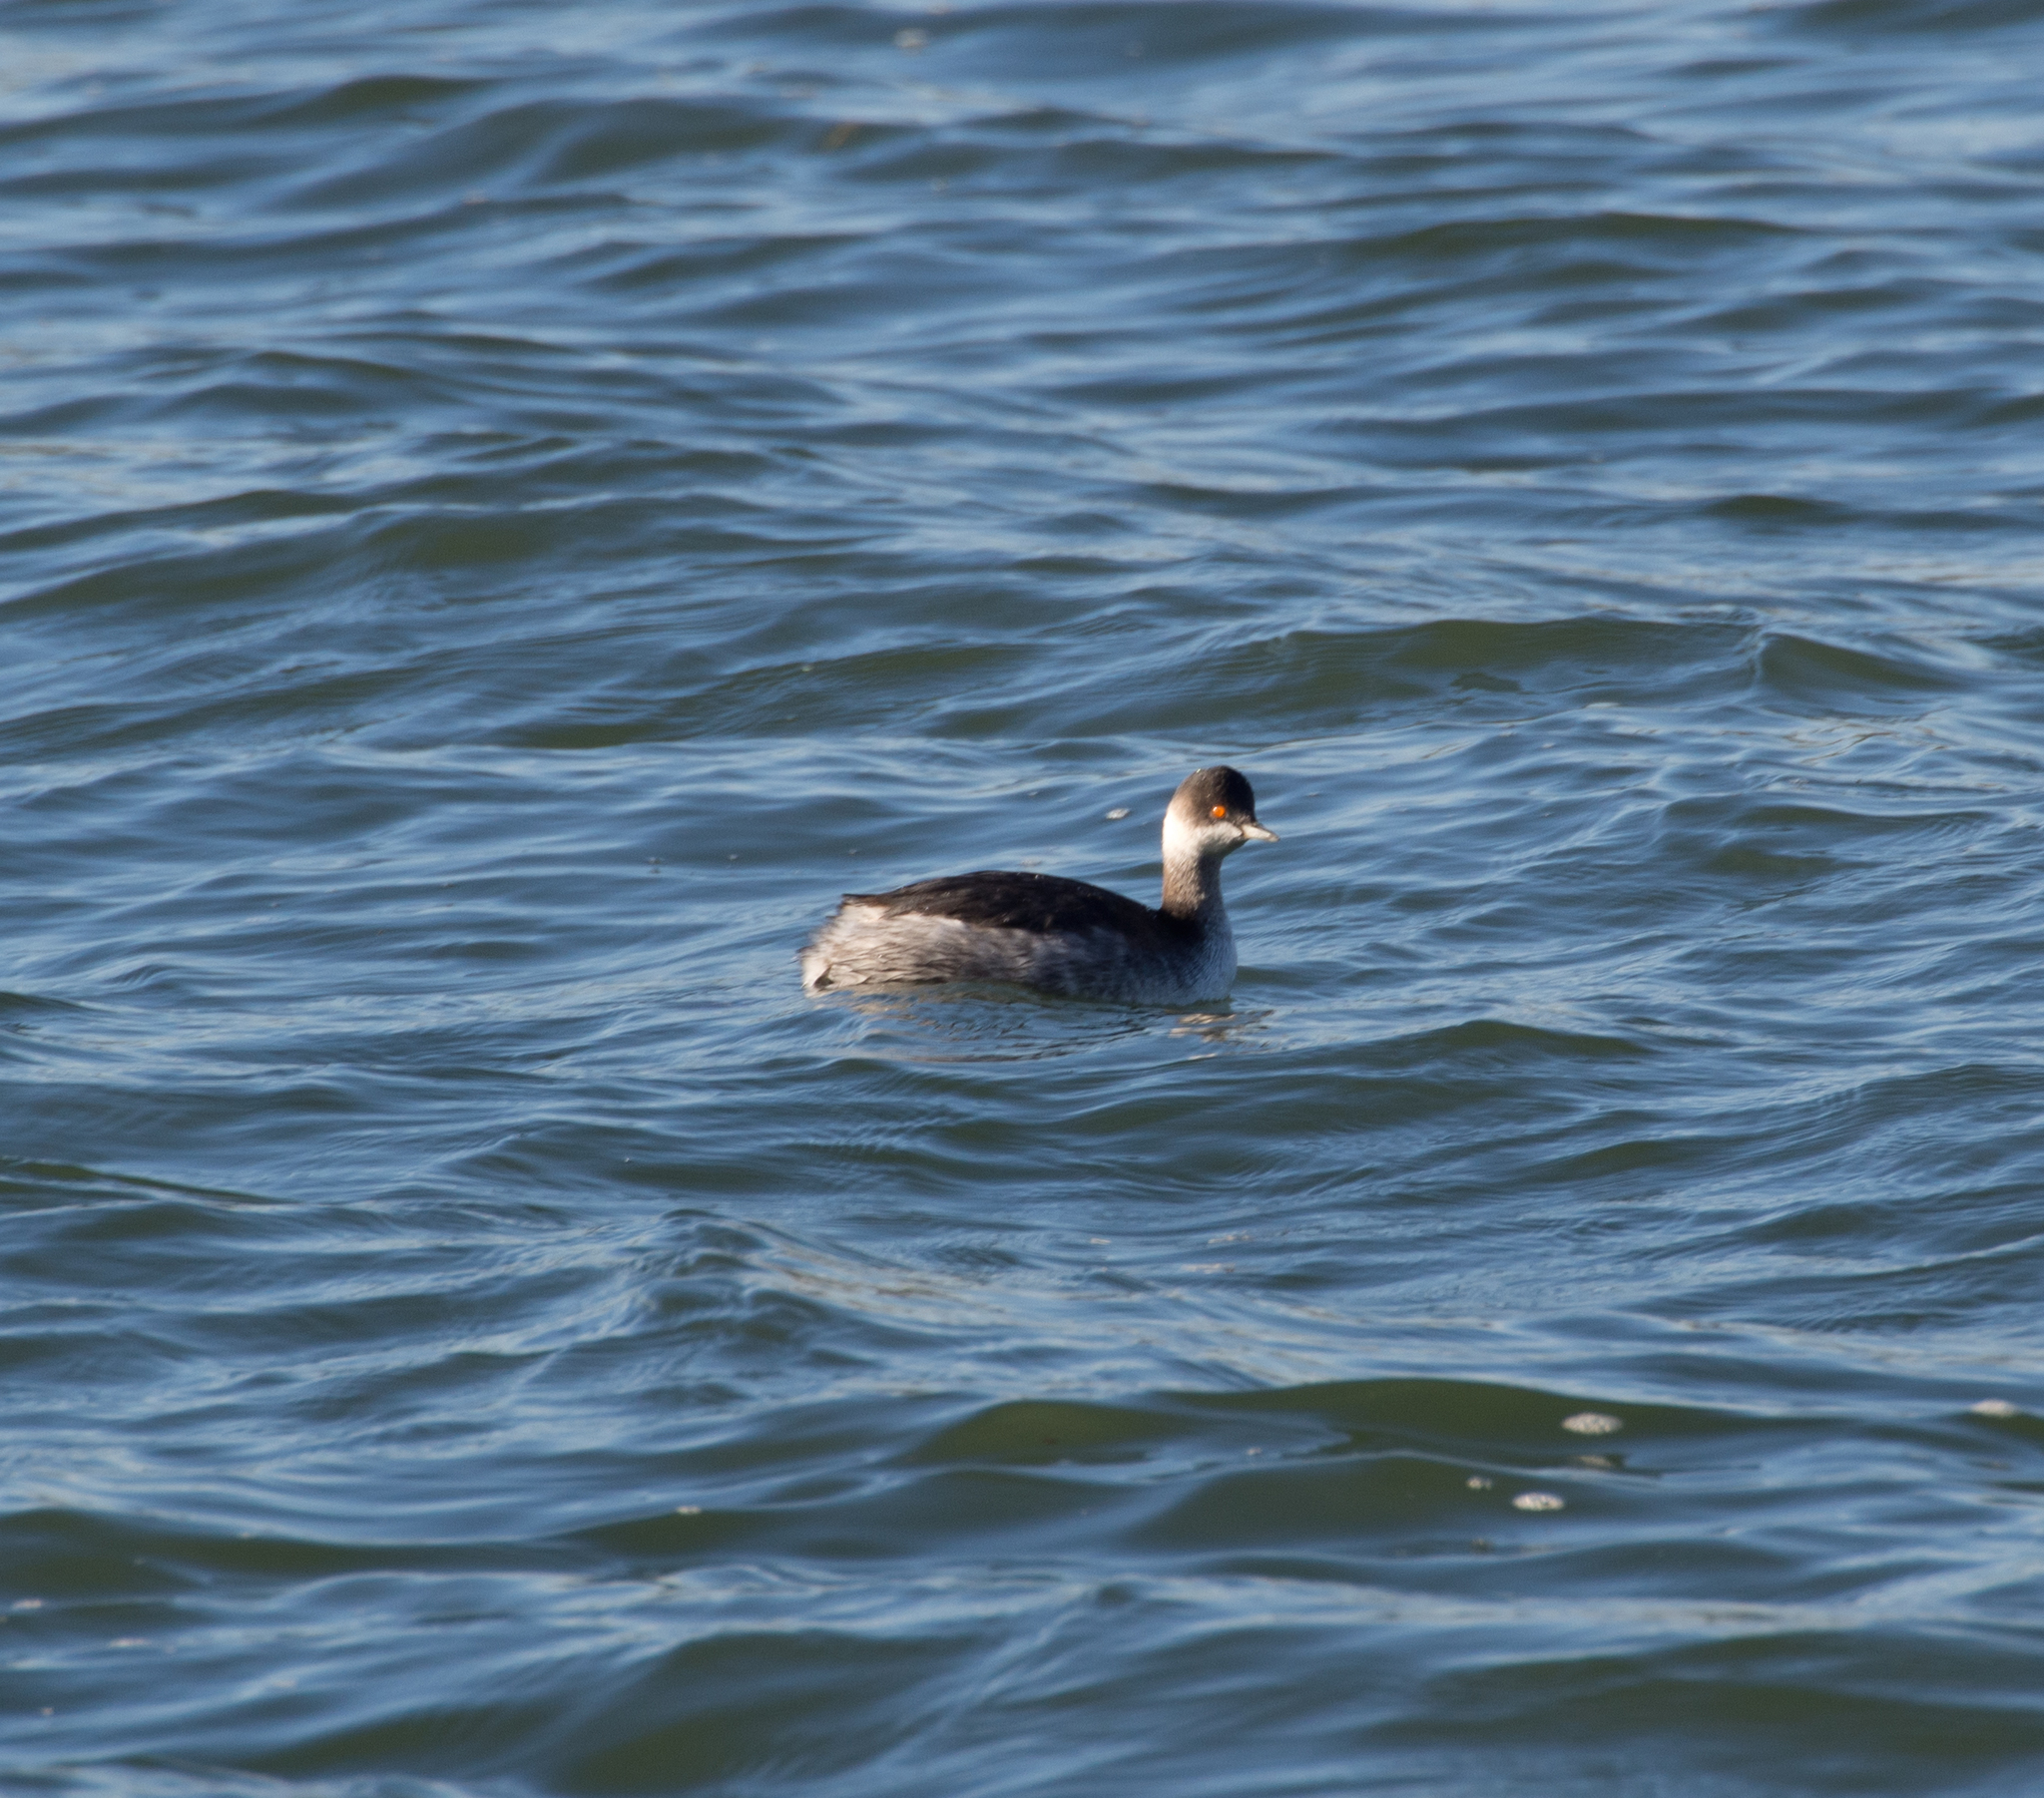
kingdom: Animalia
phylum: Chordata
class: Aves
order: Podicipediformes
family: Podicipedidae
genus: Podiceps
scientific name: Podiceps nigricollis
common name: Black-necked grebe
